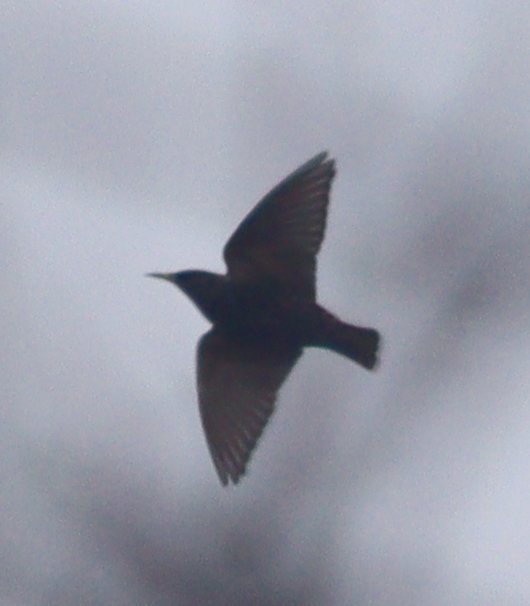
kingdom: Animalia
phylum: Chordata
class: Aves
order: Passeriformes
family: Sturnidae
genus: Sturnus
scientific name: Sturnus vulgaris
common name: Common starling
